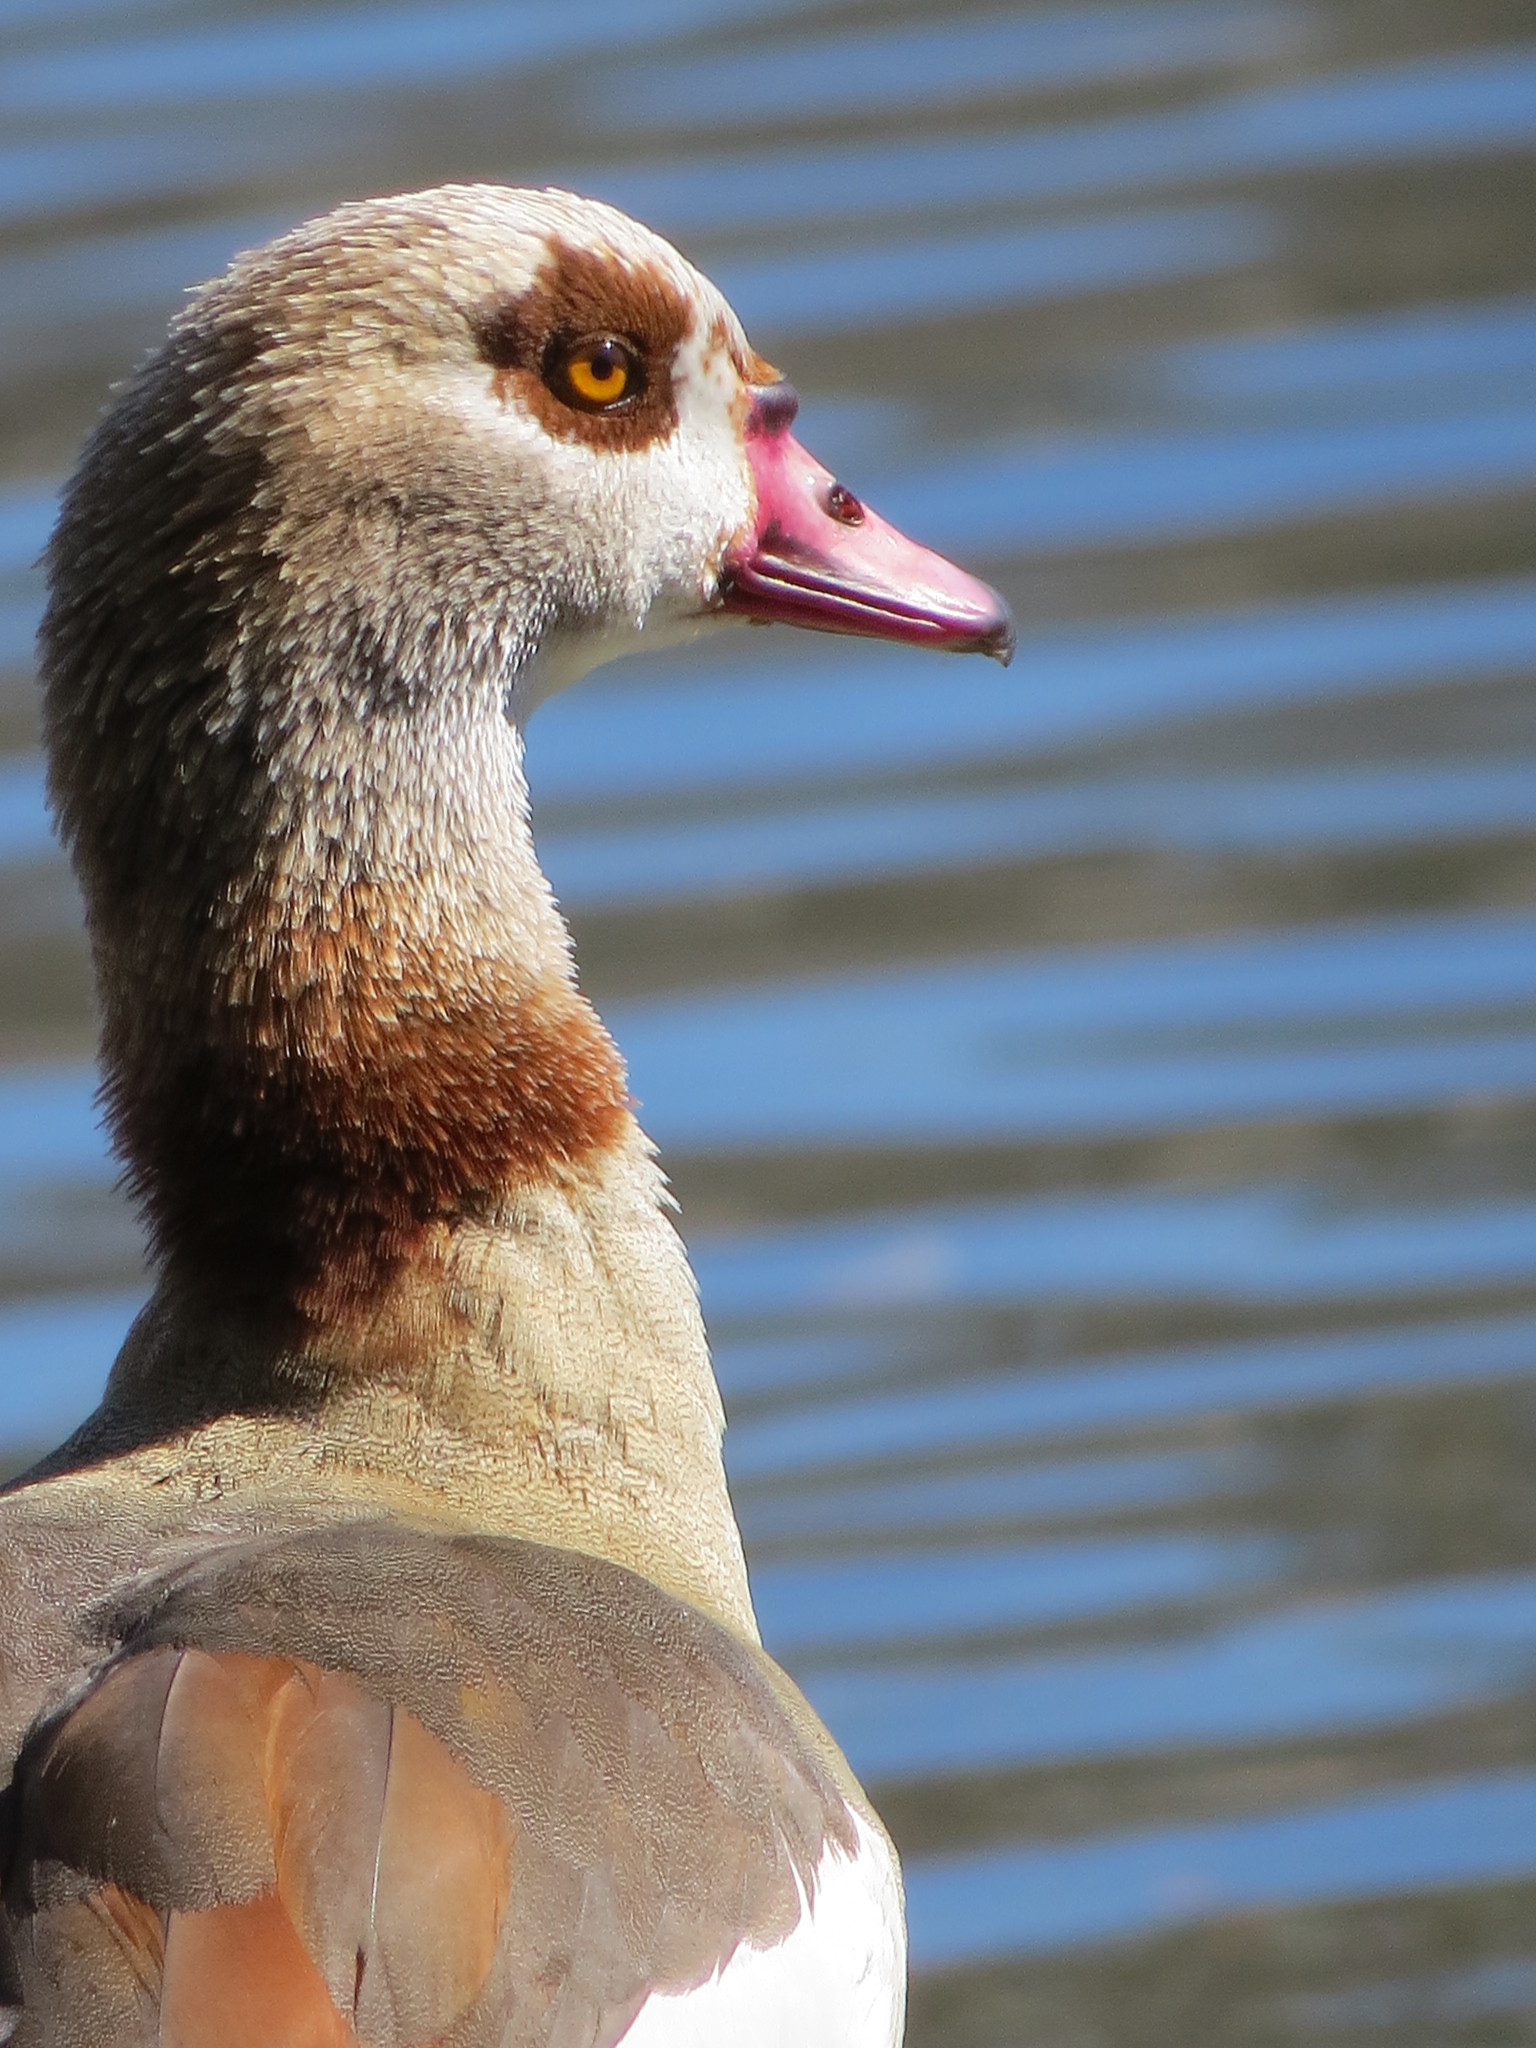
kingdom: Animalia
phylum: Chordata
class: Aves
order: Anseriformes
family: Anatidae
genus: Alopochen
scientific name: Alopochen aegyptiaca
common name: Egyptian goose
